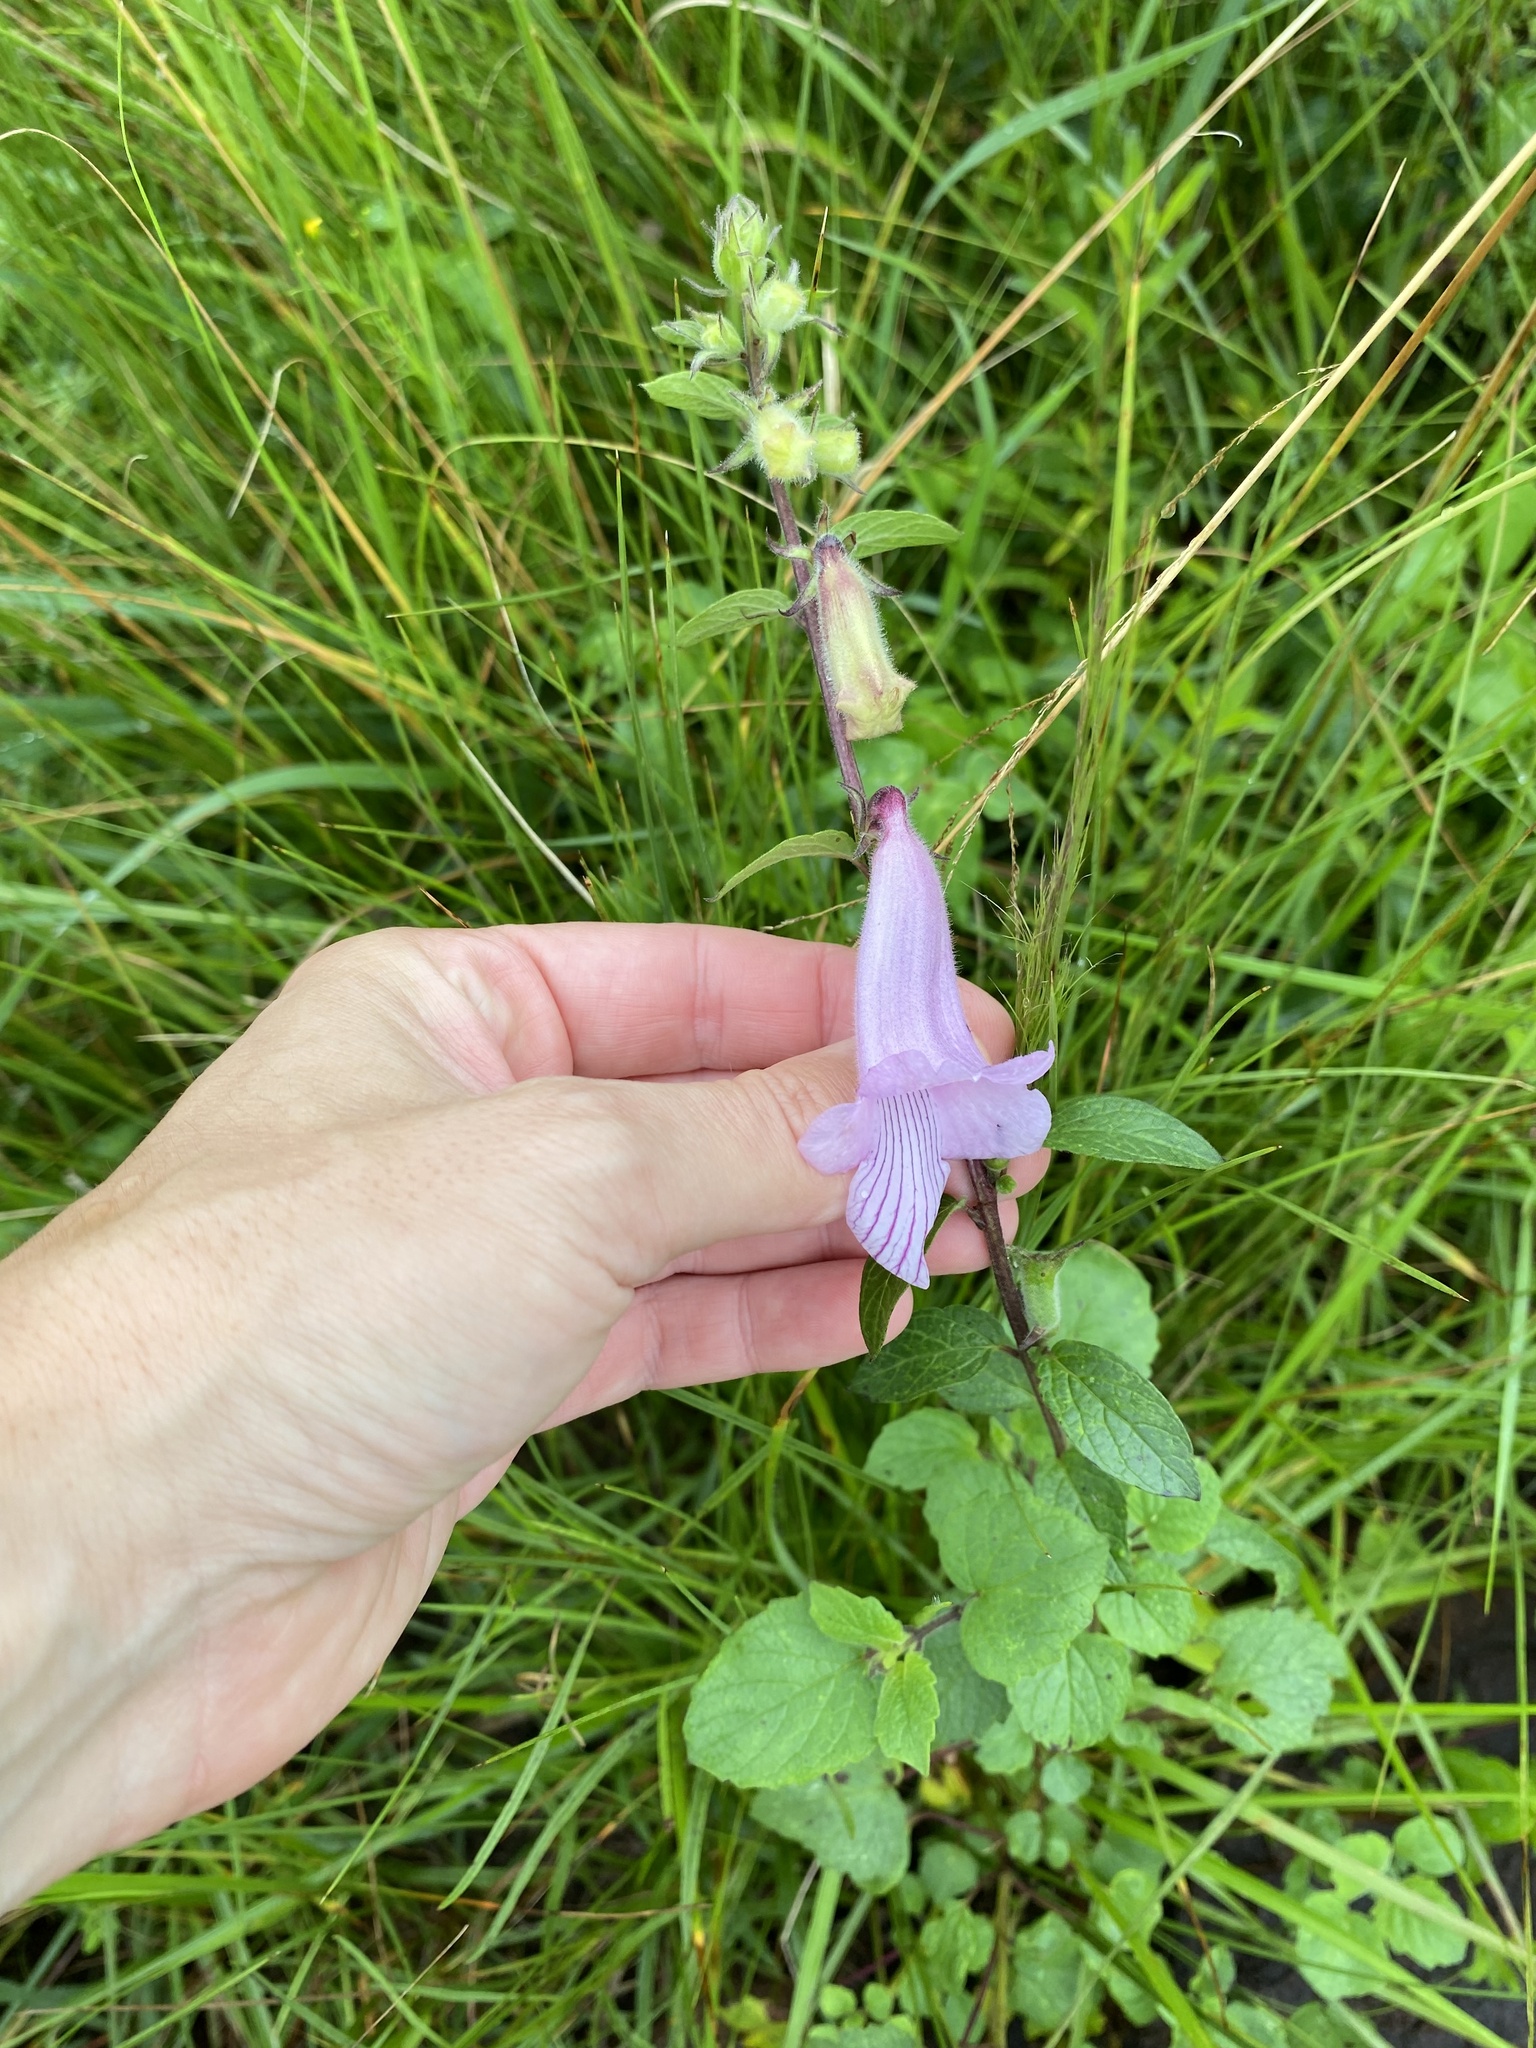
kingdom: Plantae
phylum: Tracheophyta
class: Magnoliopsida
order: Lamiales
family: Pedaliaceae
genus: Sesamum
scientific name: Sesamum trilobum
